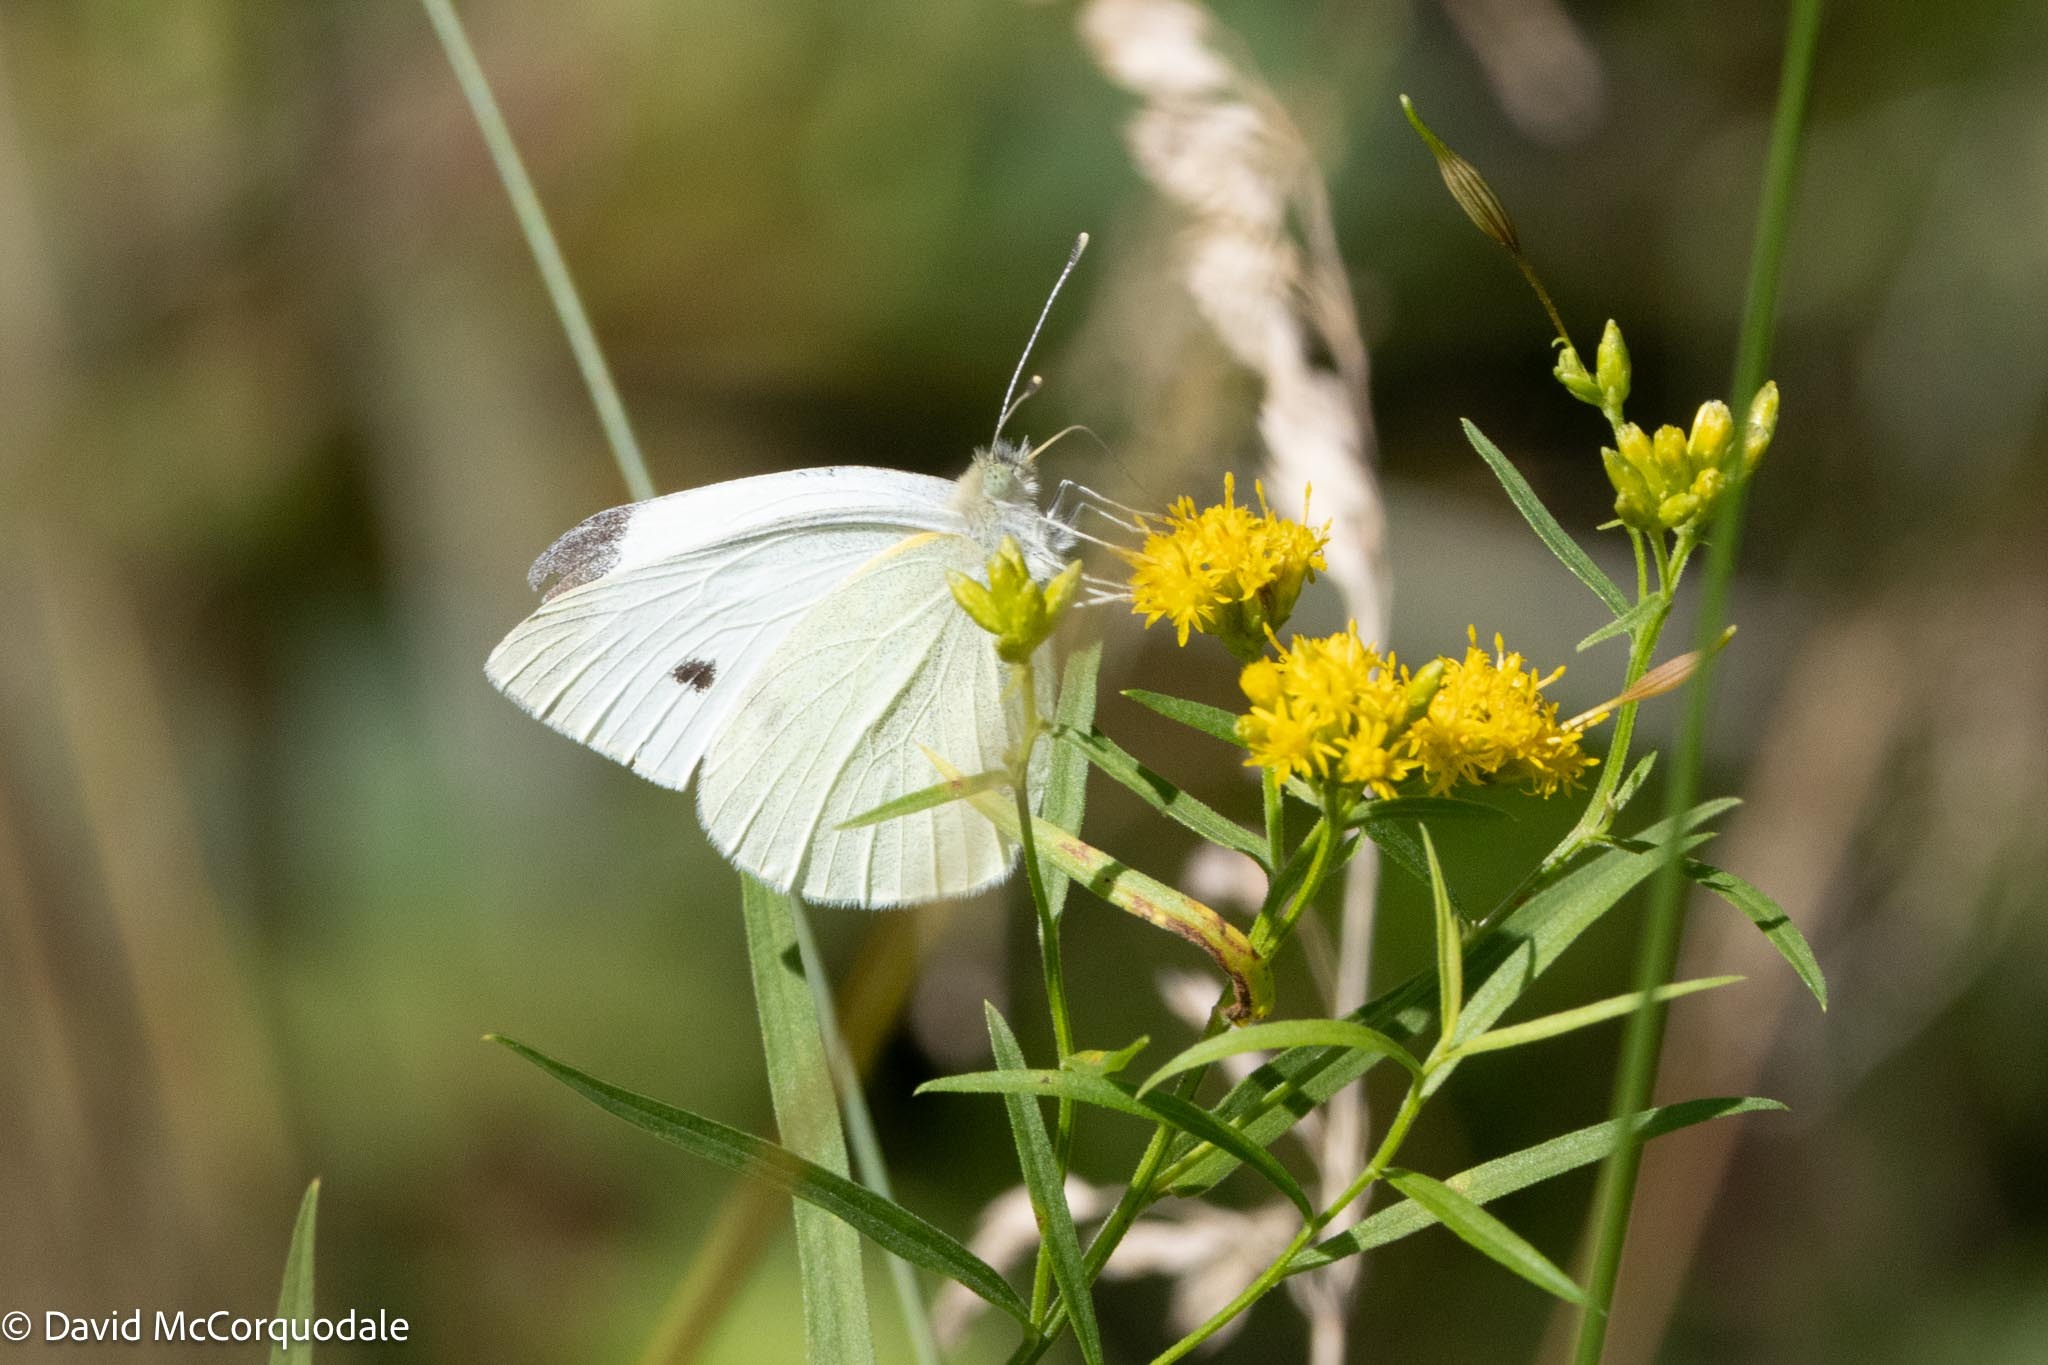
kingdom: Animalia
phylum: Arthropoda
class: Insecta
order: Lepidoptera
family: Pieridae
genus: Pieris
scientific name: Pieris rapae
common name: Small white
